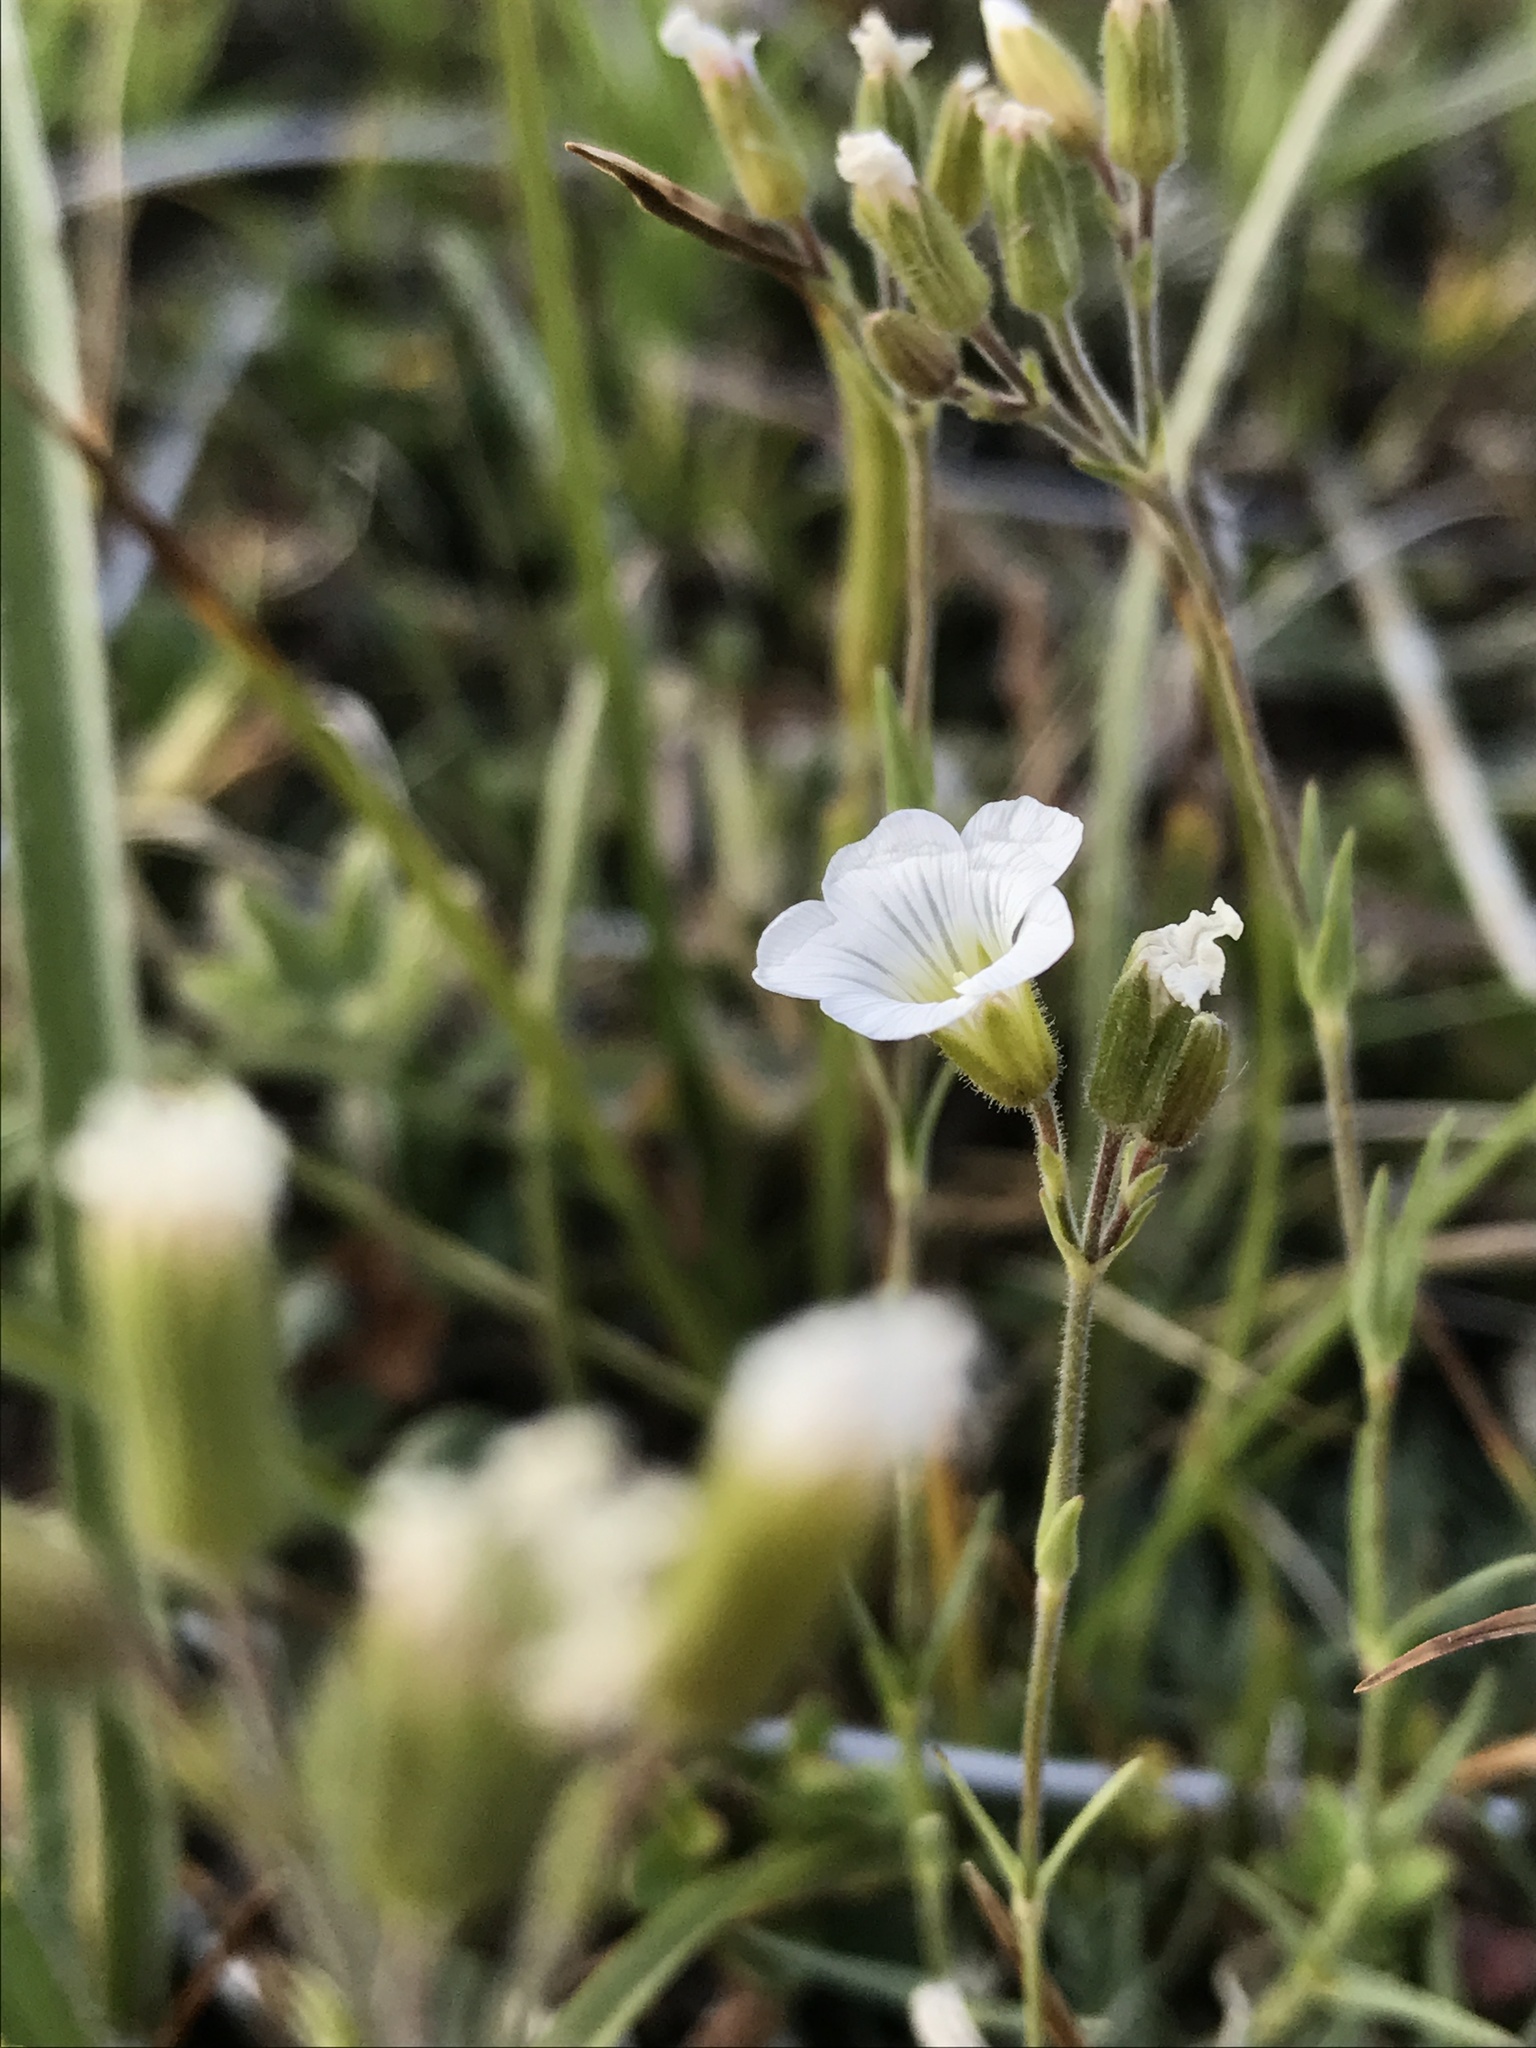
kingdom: Plantae
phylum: Tracheophyta
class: Magnoliopsida
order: Caryophyllales
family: Caryophyllaceae
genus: Cherleria
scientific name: Cherleria circassica
